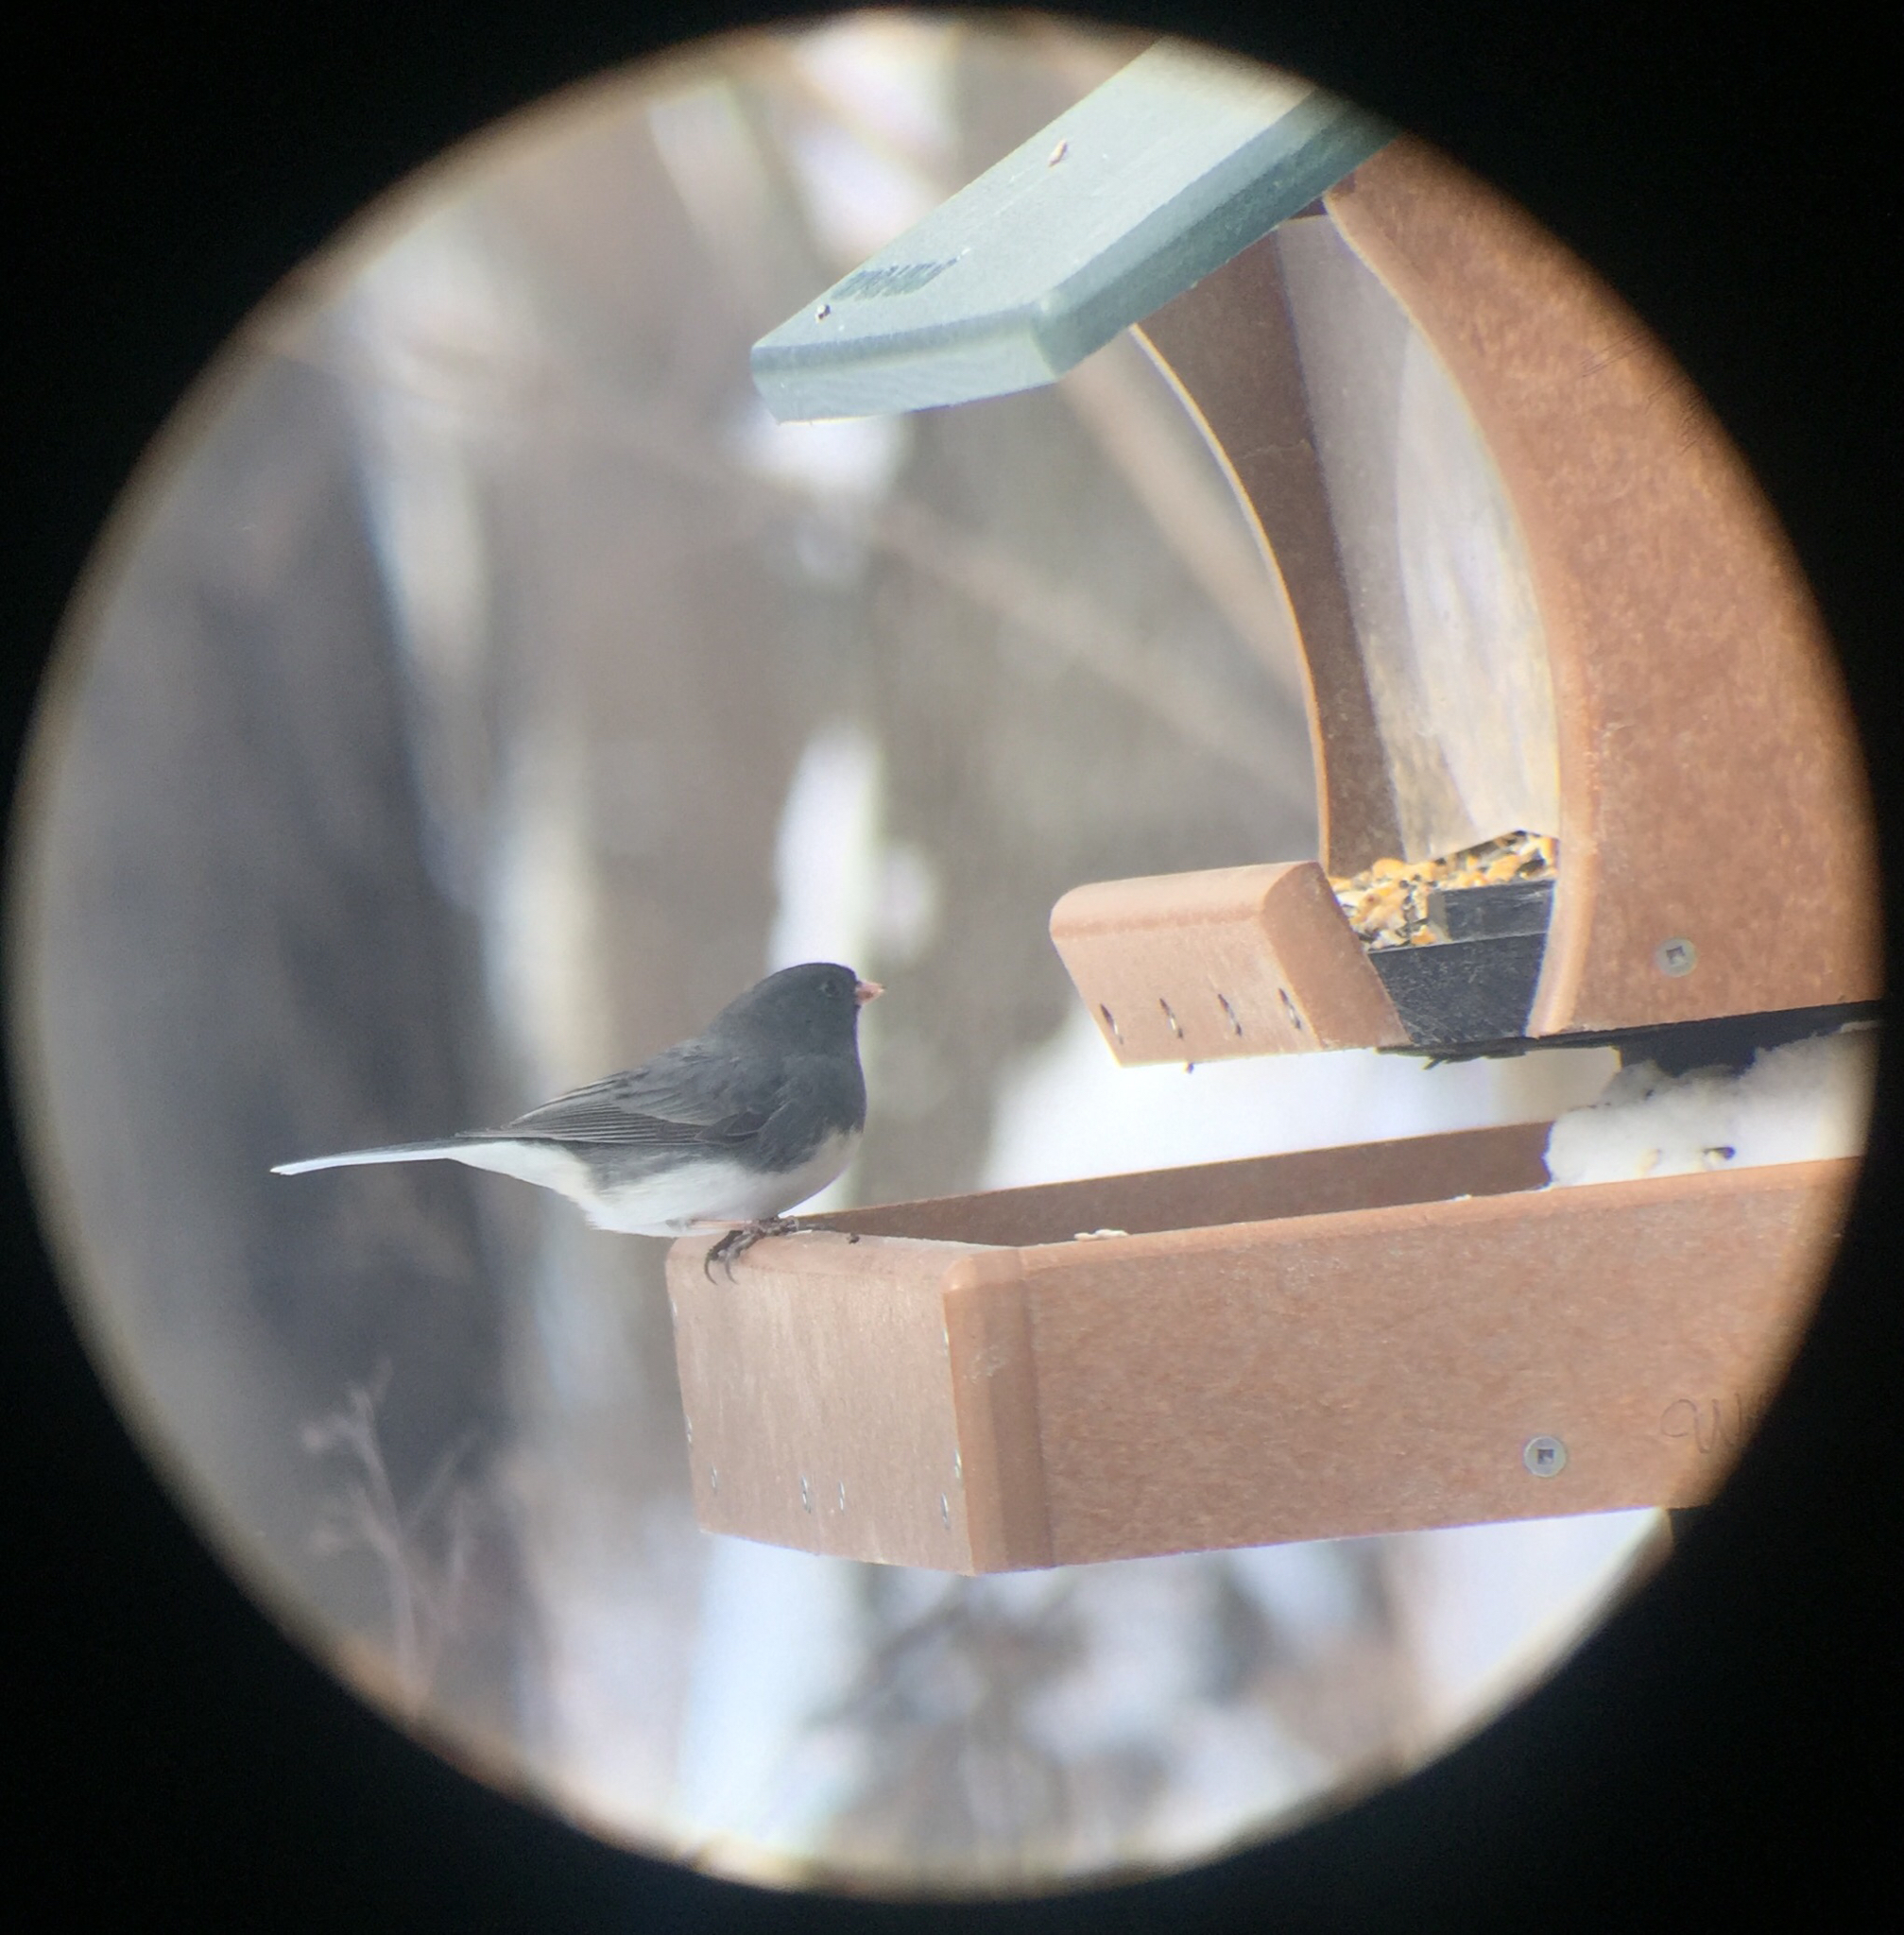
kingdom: Animalia
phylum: Chordata
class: Aves
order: Passeriformes
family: Passerellidae
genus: Junco
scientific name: Junco hyemalis
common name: Dark-eyed junco
